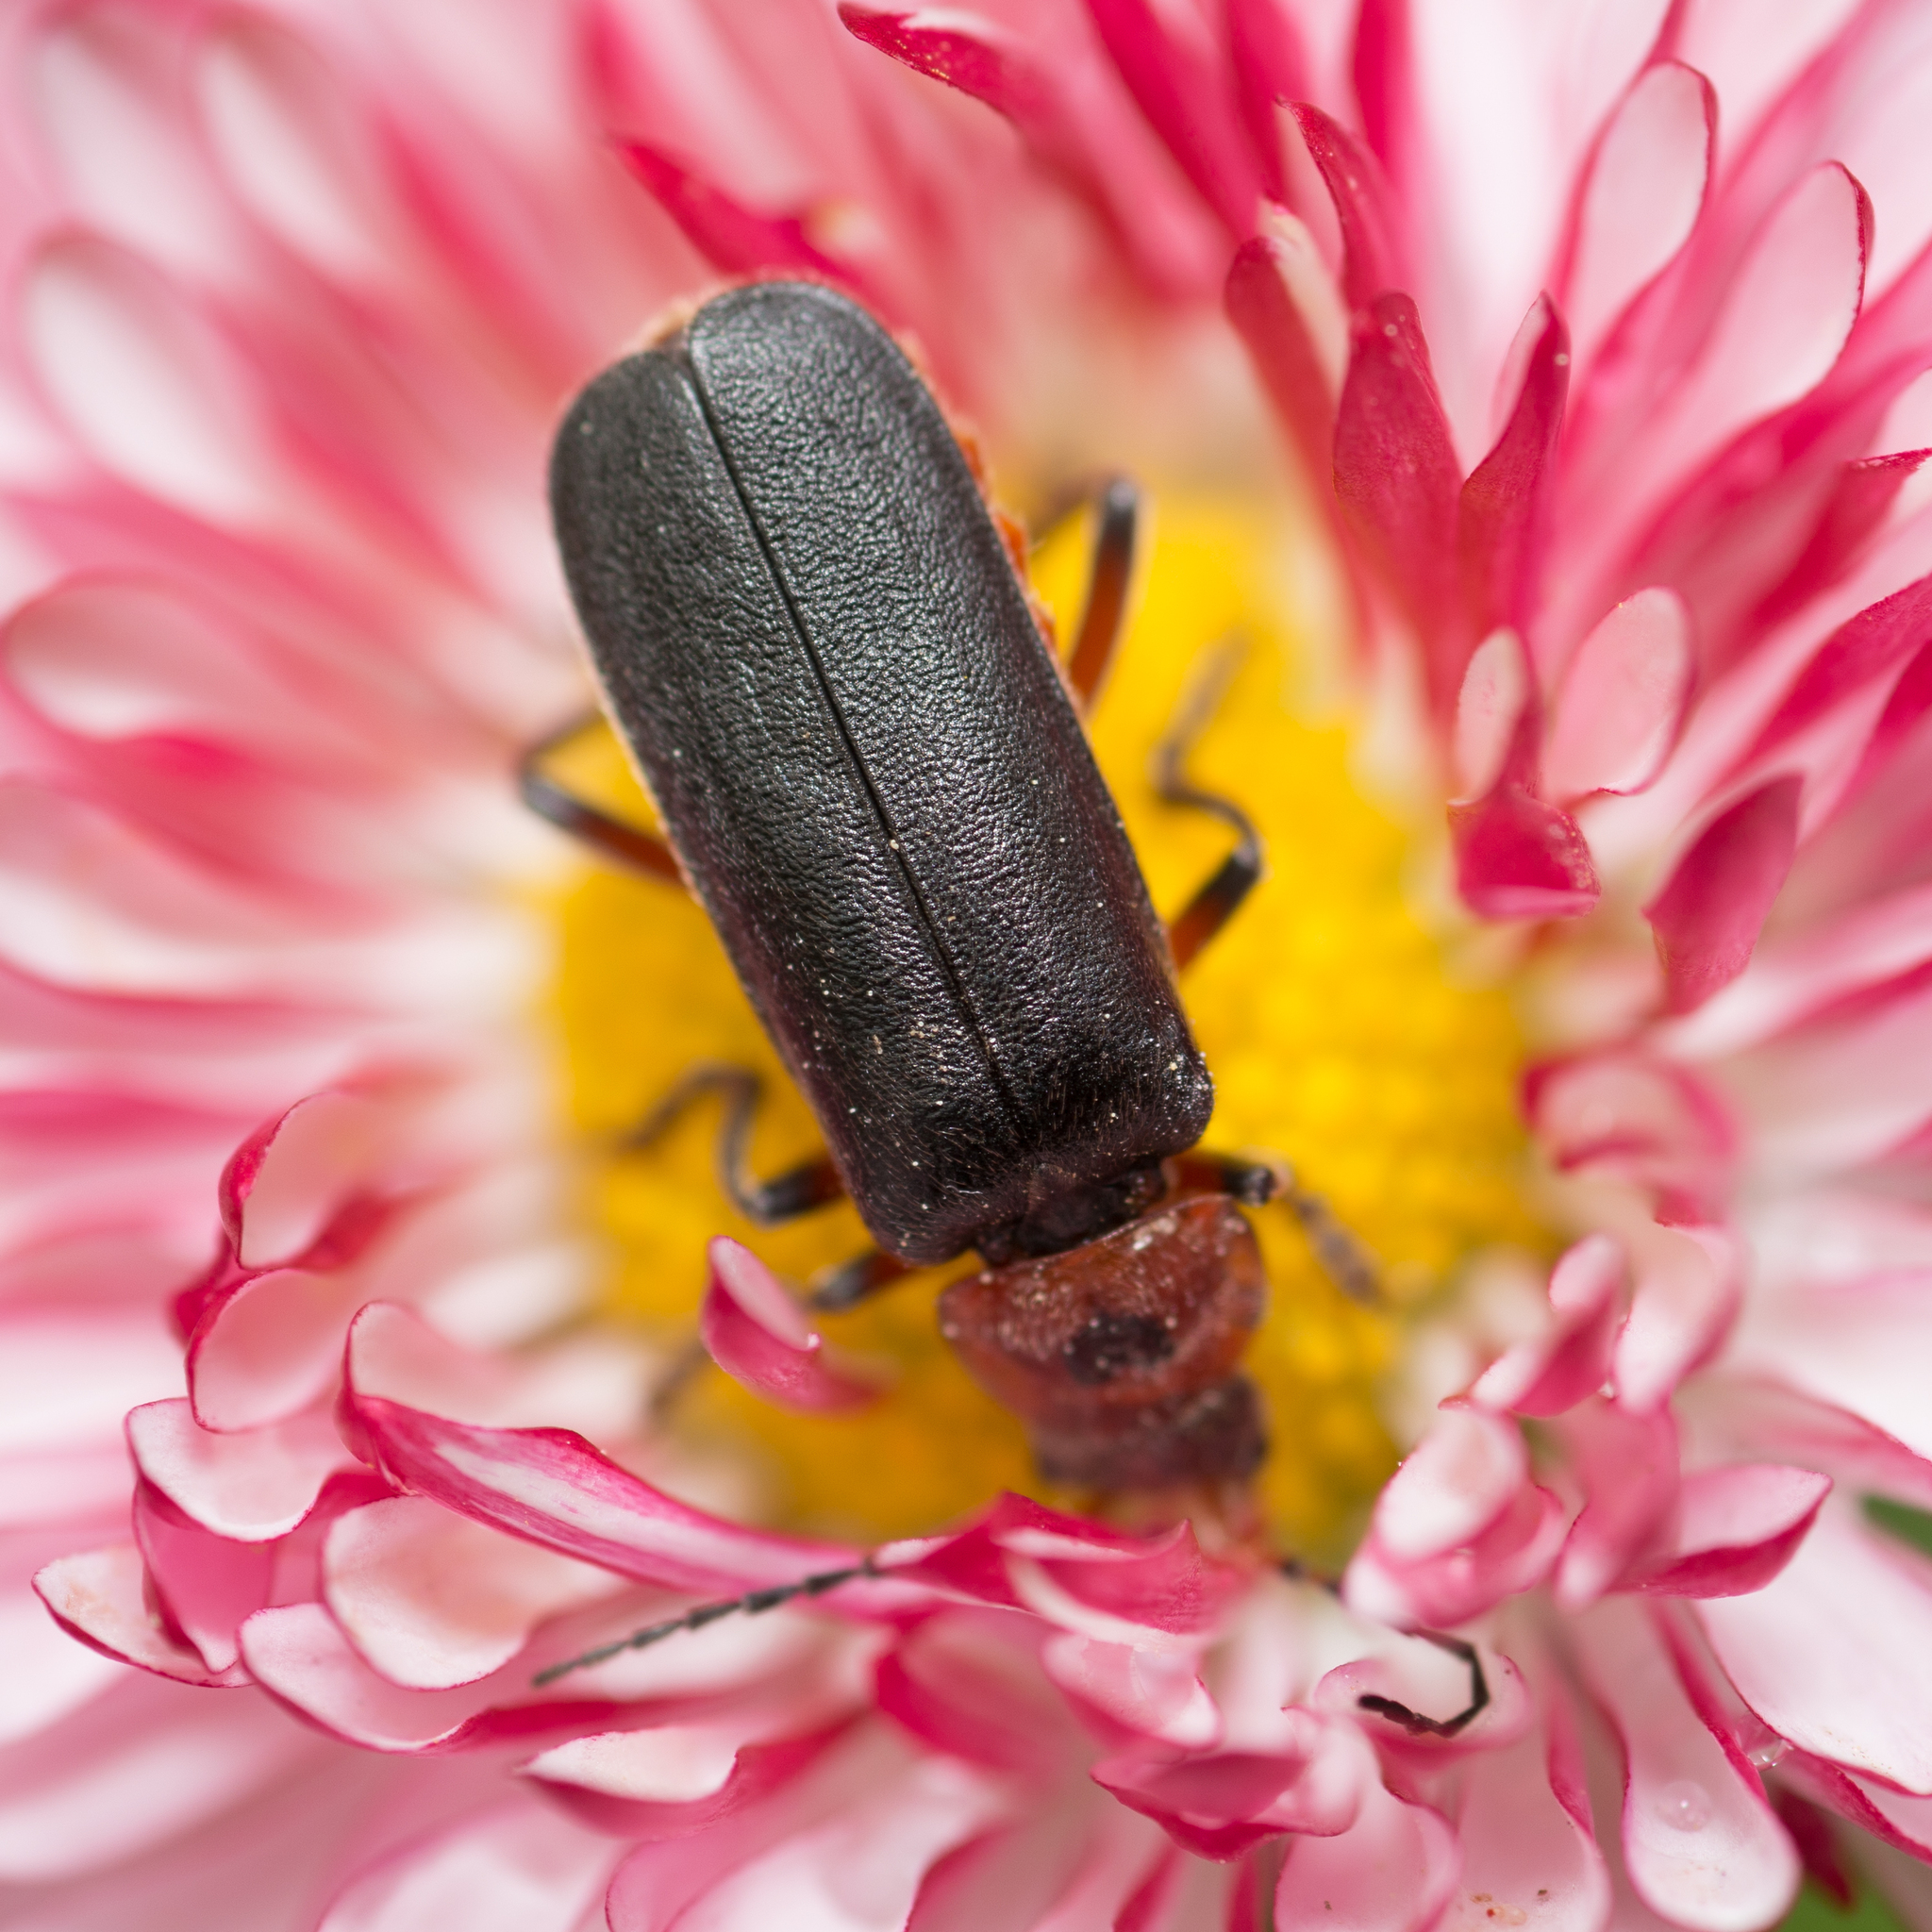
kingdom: Animalia
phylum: Arthropoda
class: Insecta
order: Coleoptera
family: Cantharidae
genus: Cantharis
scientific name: Cantharis rustica
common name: Soldier beetle
